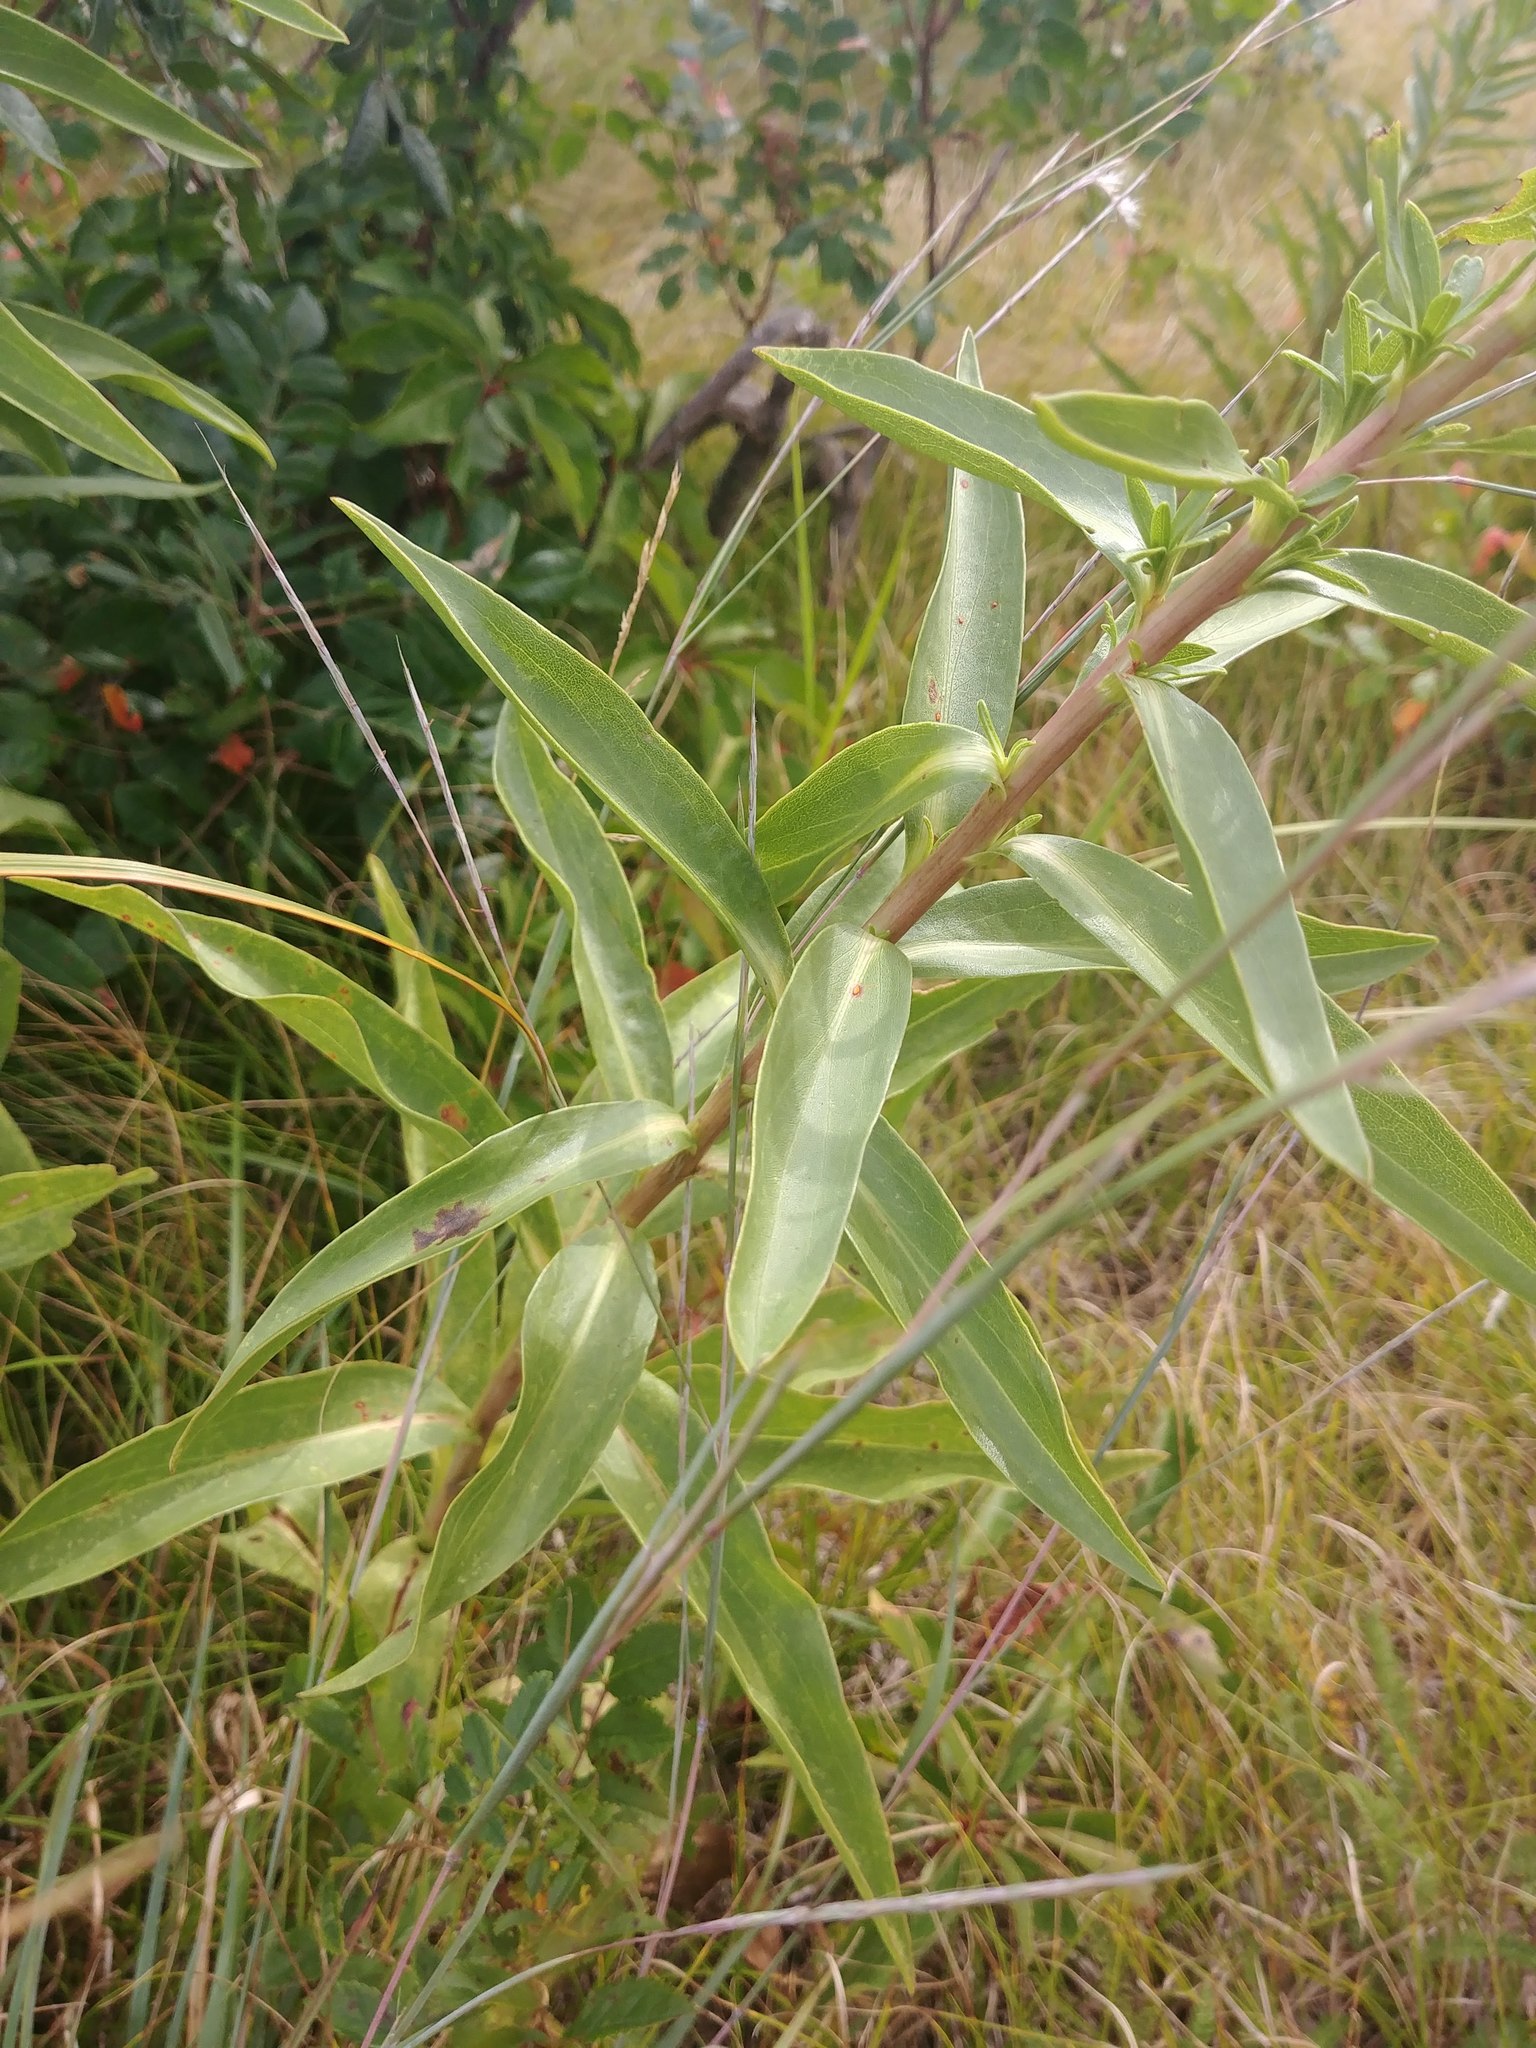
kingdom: Plantae
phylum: Tracheophyta
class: Magnoliopsida
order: Asterales
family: Asteraceae
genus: Solidago
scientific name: Solidago sempervirens
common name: Salt-marsh goldenrod
